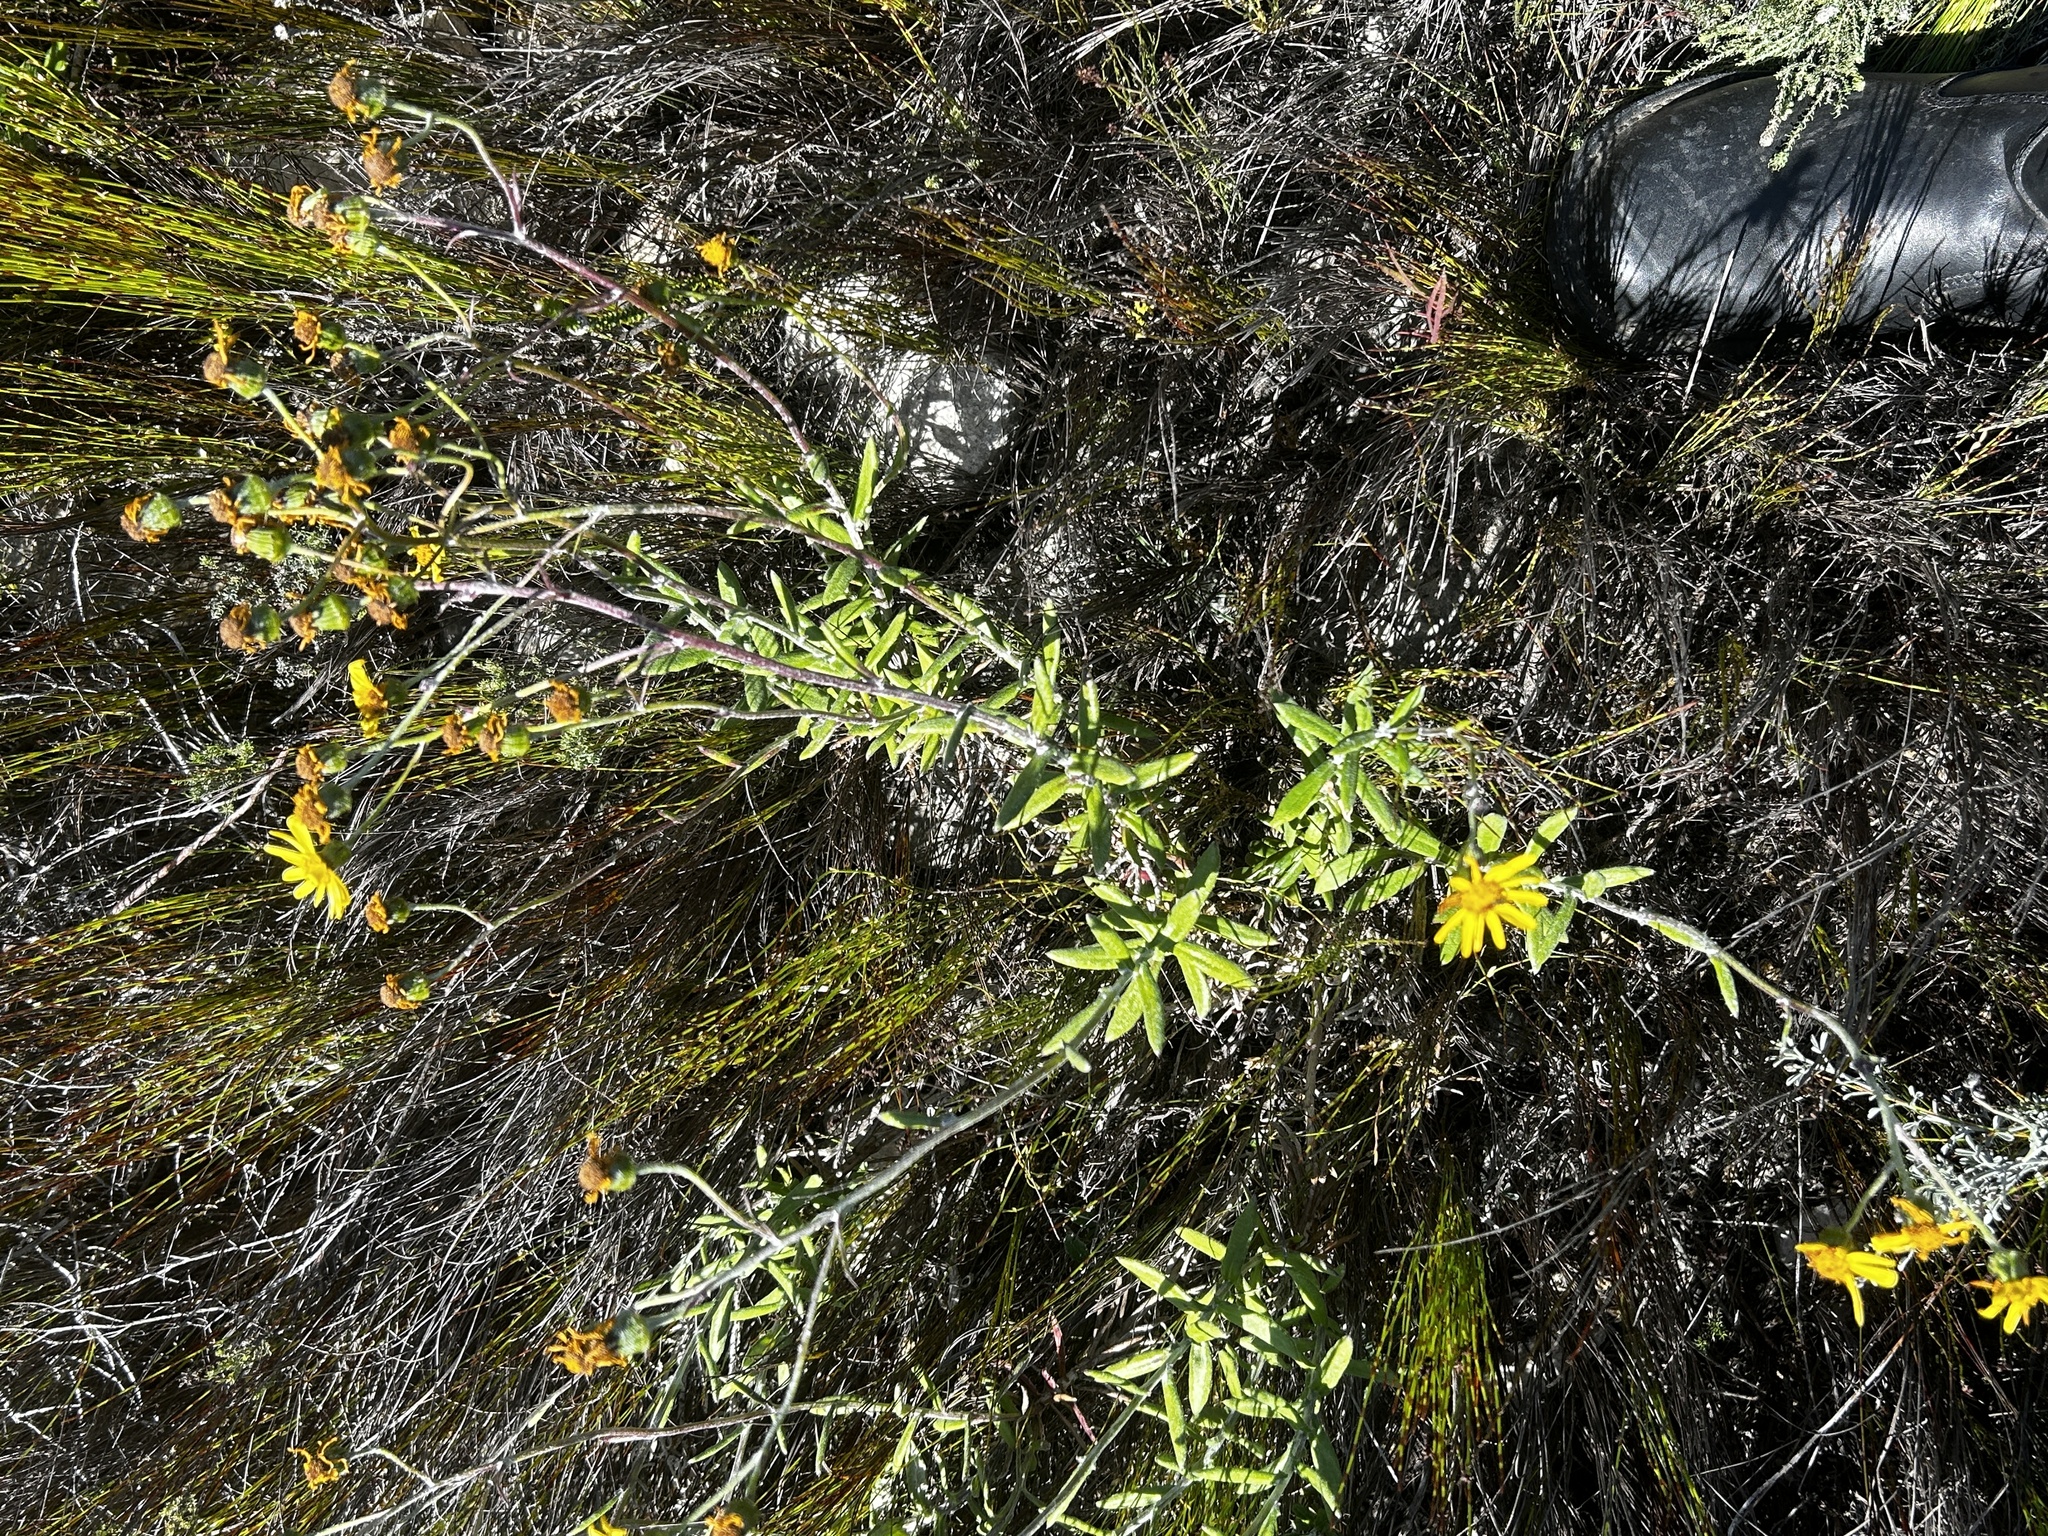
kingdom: Plantae
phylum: Tracheophyta
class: Magnoliopsida
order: Asterales
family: Asteraceae
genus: Senecio
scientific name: Senecio arniciflorus
